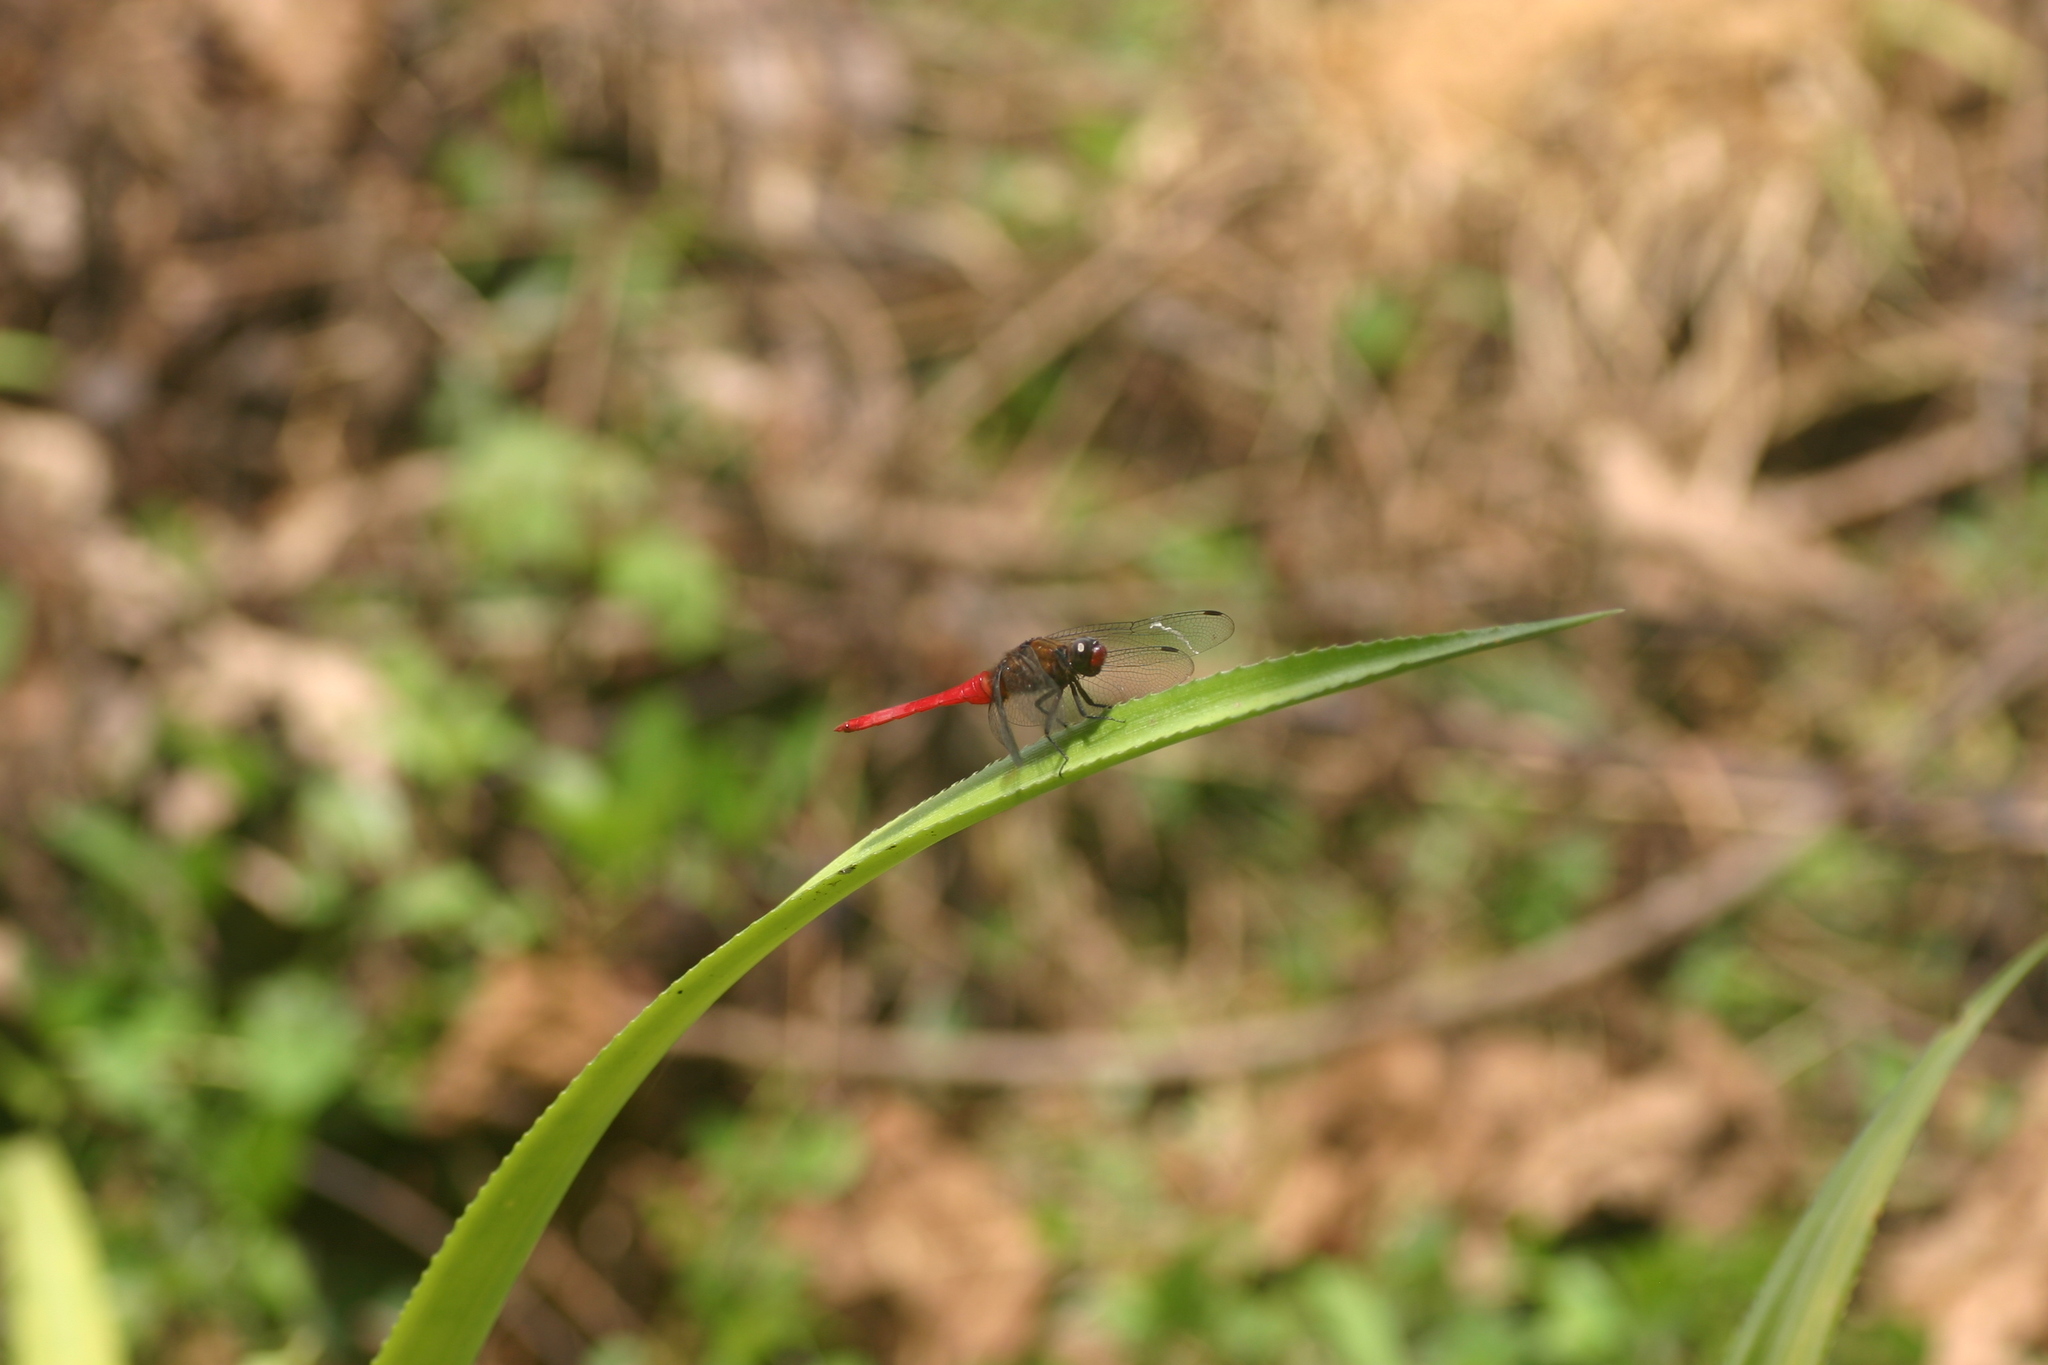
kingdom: Animalia
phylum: Arthropoda
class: Insecta
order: Odonata
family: Libellulidae
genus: Orthetrum
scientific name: Orthetrum chrysis
